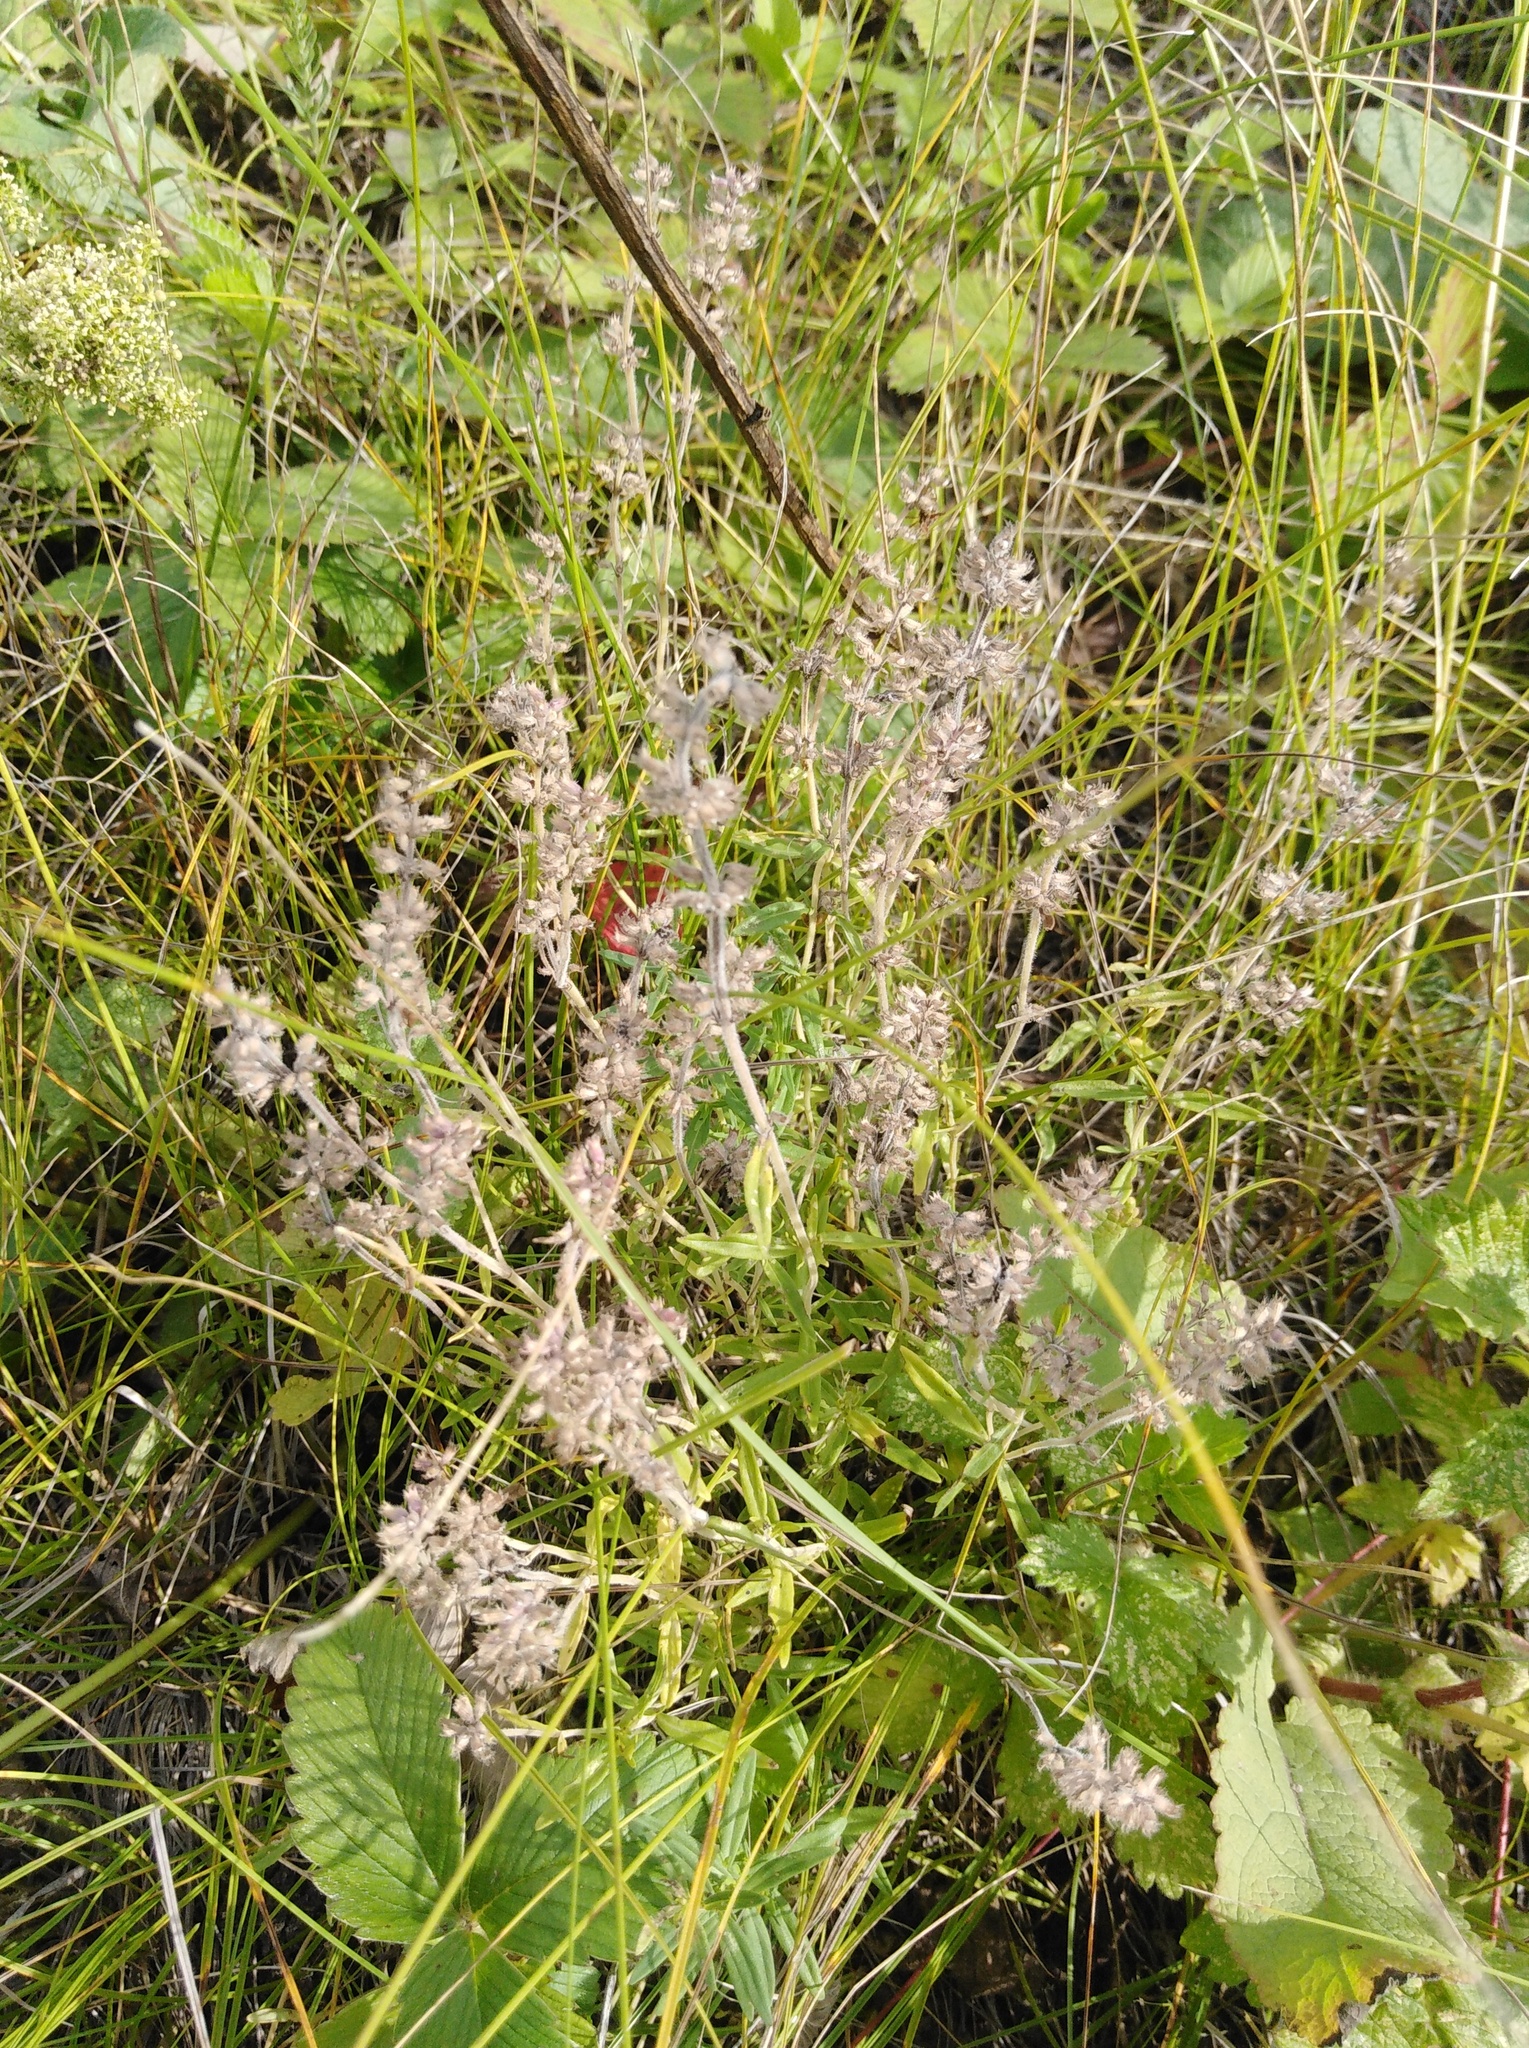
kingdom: Plantae
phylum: Tracheophyta
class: Magnoliopsida
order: Lamiales
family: Lamiaceae
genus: Thymus
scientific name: Thymus pannonicus
